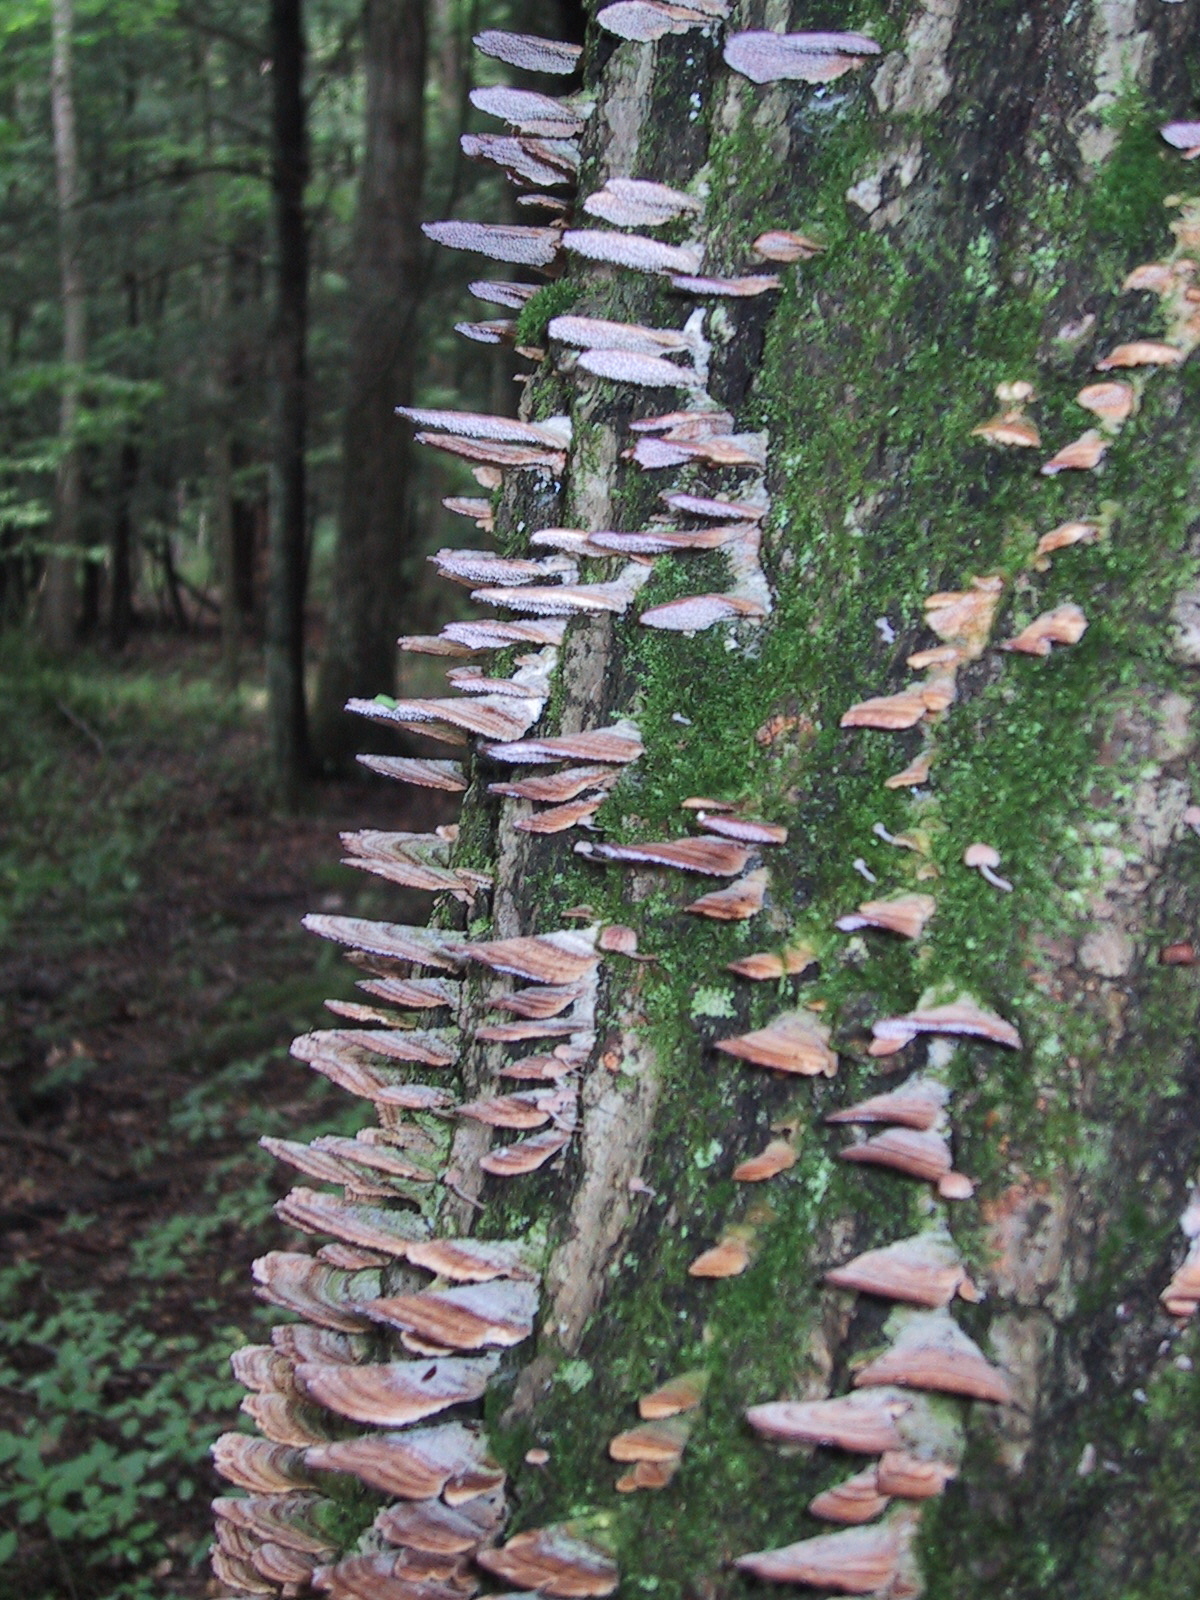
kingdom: Fungi
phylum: Basidiomycota
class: Agaricomycetes
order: Hymenochaetales
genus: Trichaptum
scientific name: Trichaptum biforme
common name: Violet-toothed polypore
